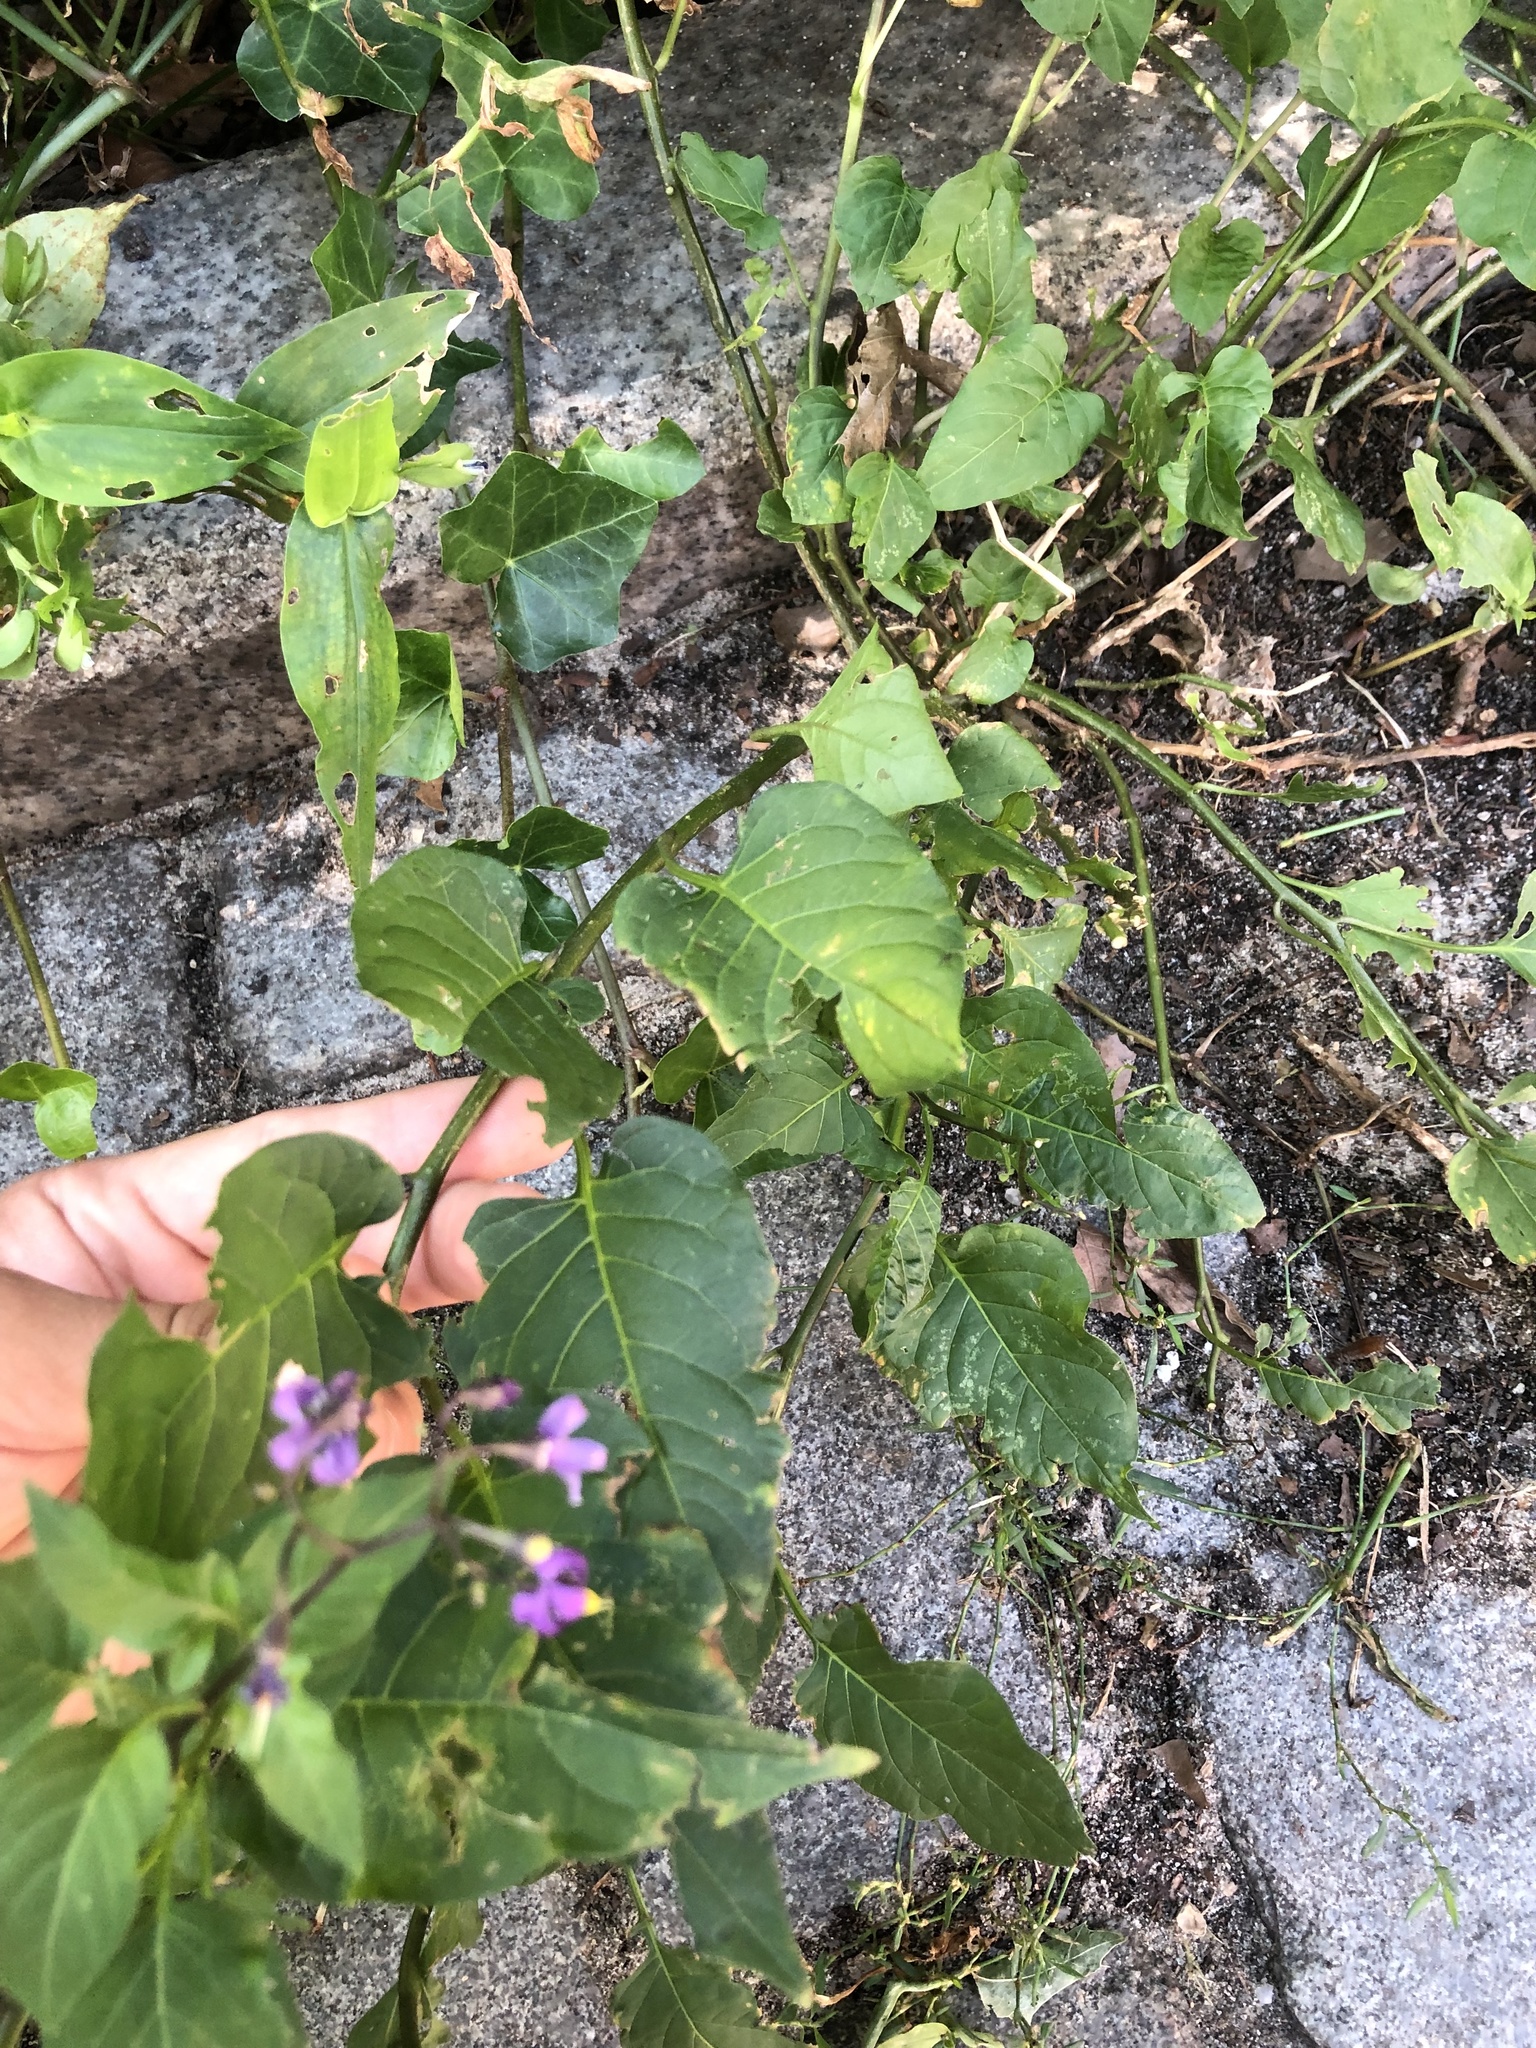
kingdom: Plantae
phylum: Tracheophyta
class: Magnoliopsida
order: Solanales
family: Solanaceae
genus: Solanum
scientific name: Solanum dulcamara
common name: Climbing nightshade
